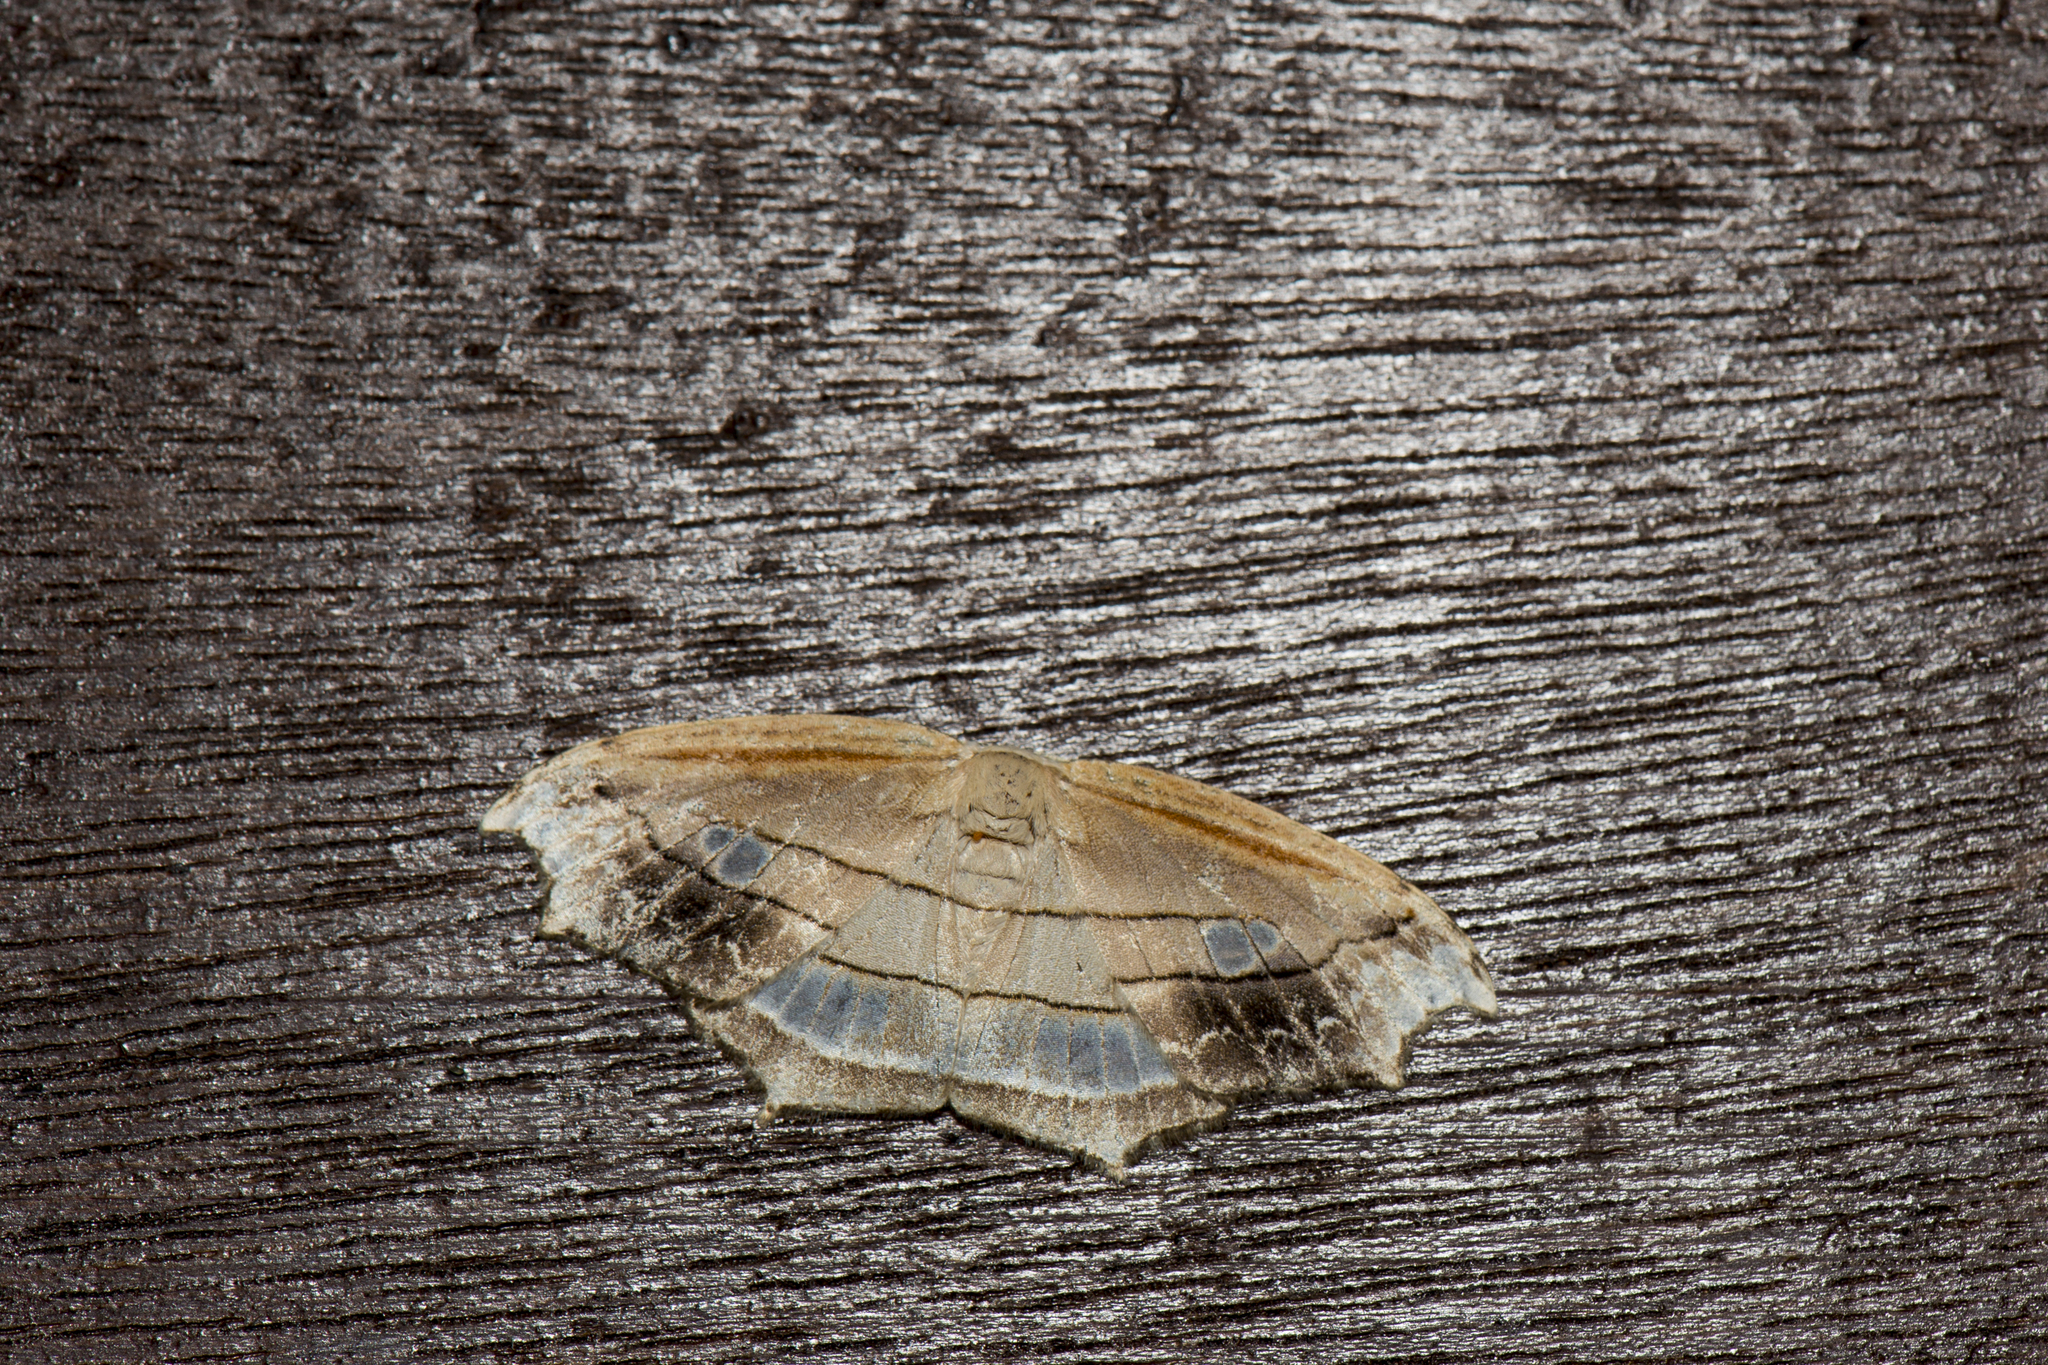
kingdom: Animalia
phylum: Arthropoda
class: Insecta
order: Lepidoptera
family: Drepanidae
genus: Leucoblepsis
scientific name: Leucoblepsis taiwanensis
